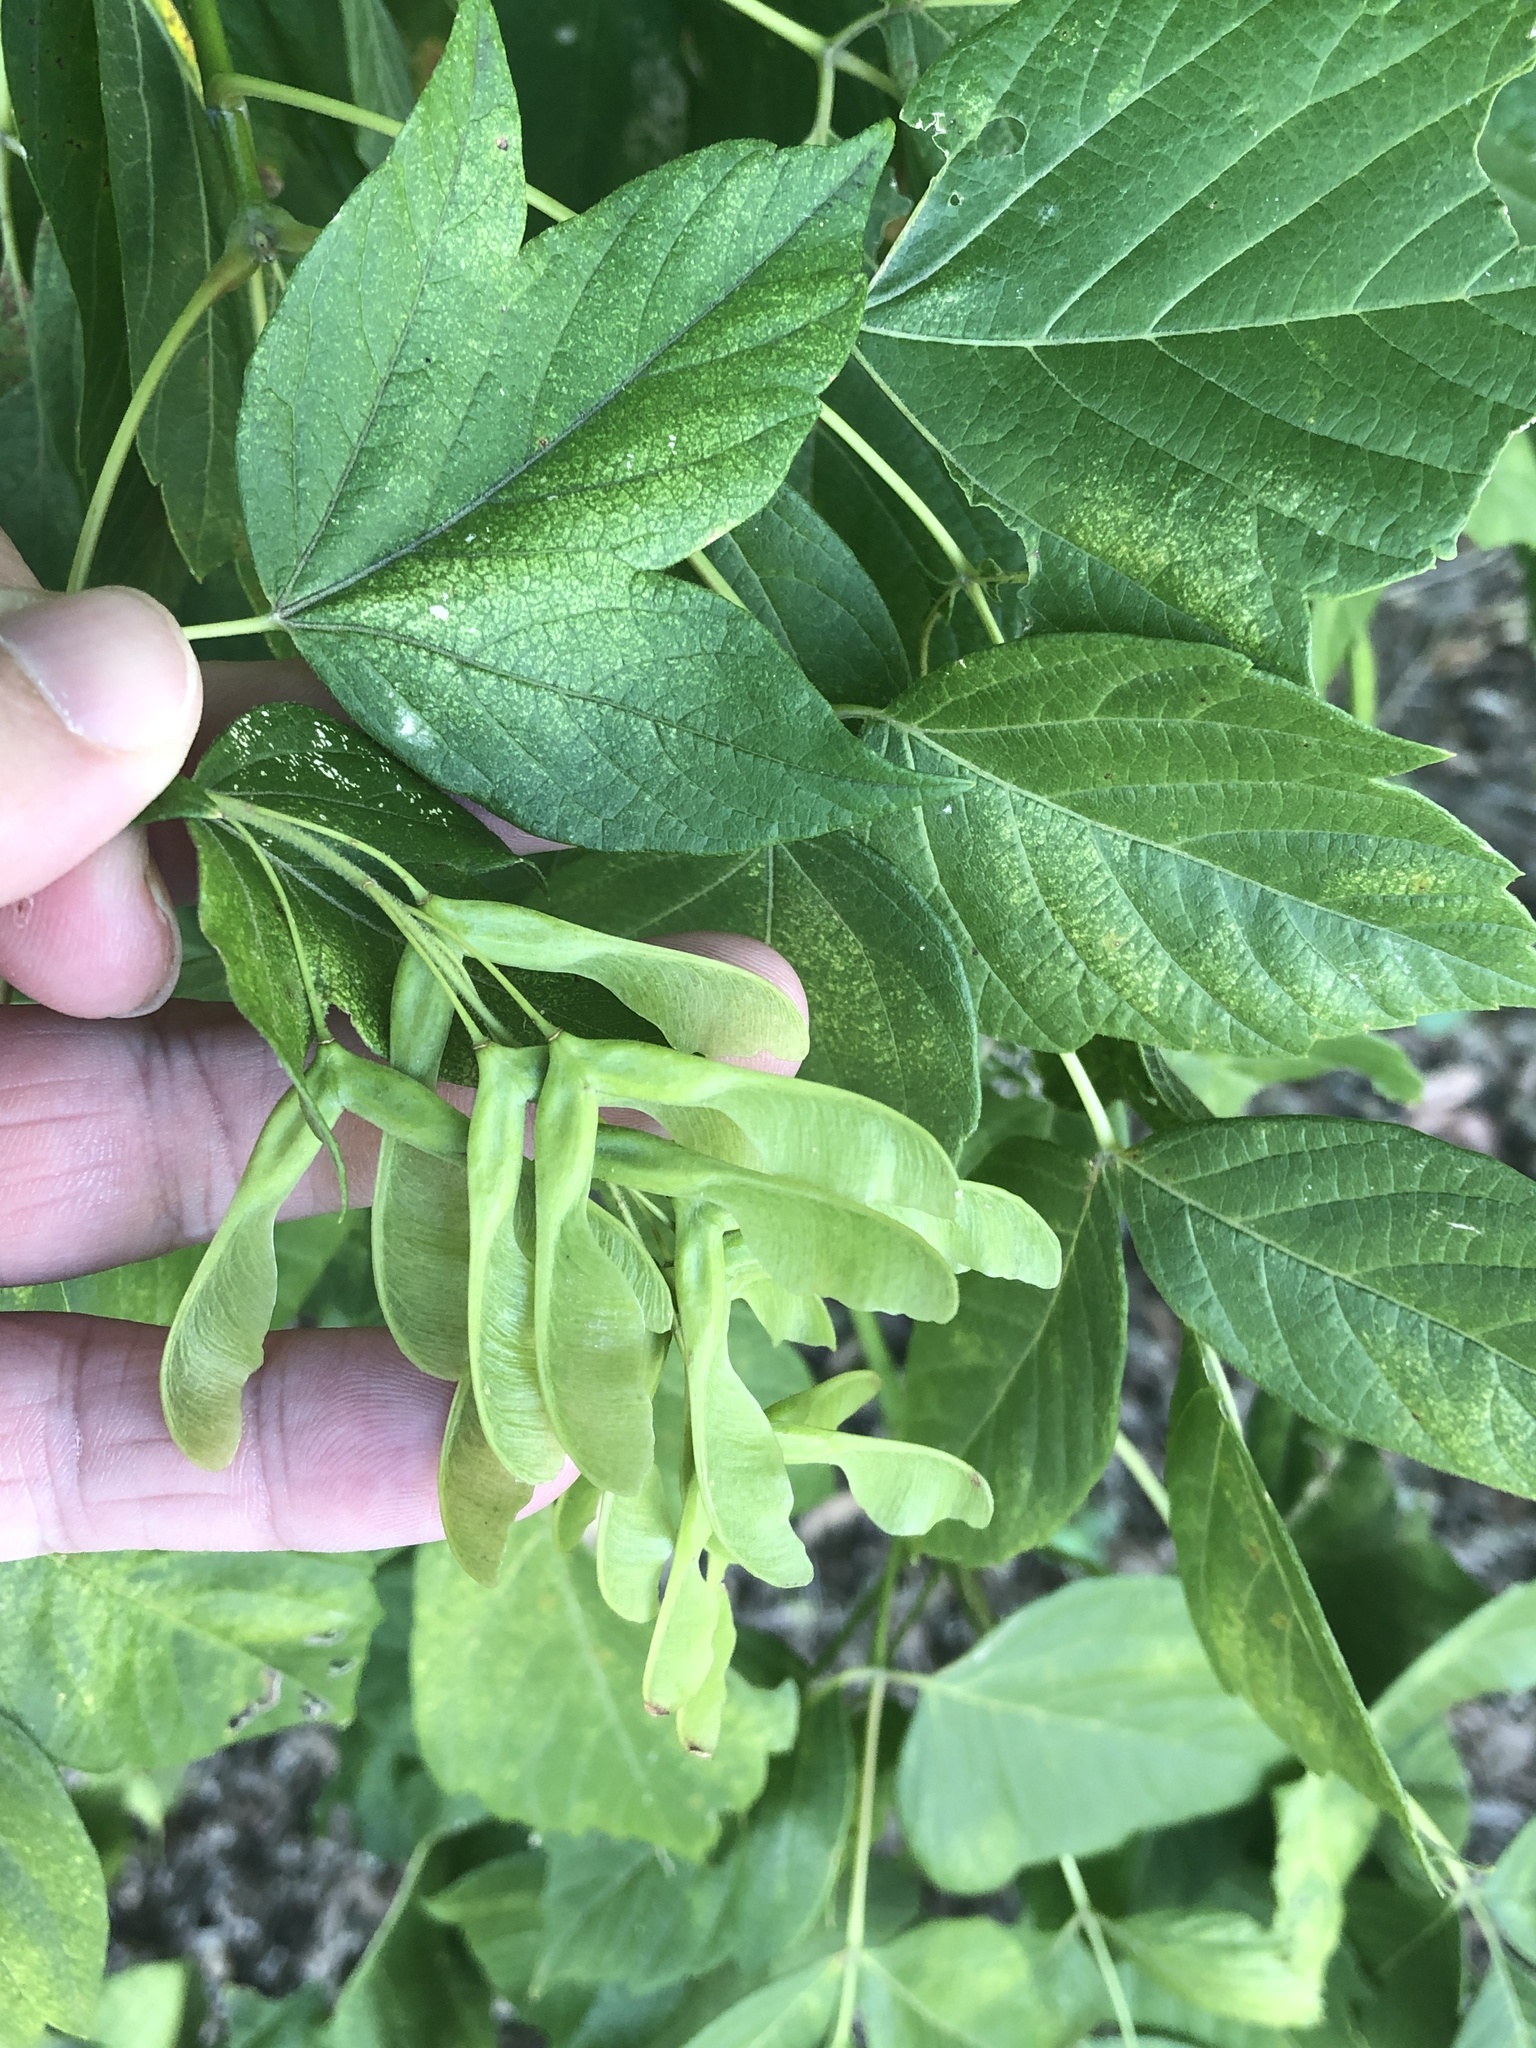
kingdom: Plantae
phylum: Tracheophyta
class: Magnoliopsida
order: Sapindales
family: Sapindaceae
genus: Acer
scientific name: Acer negundo
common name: Ashleaf maple
